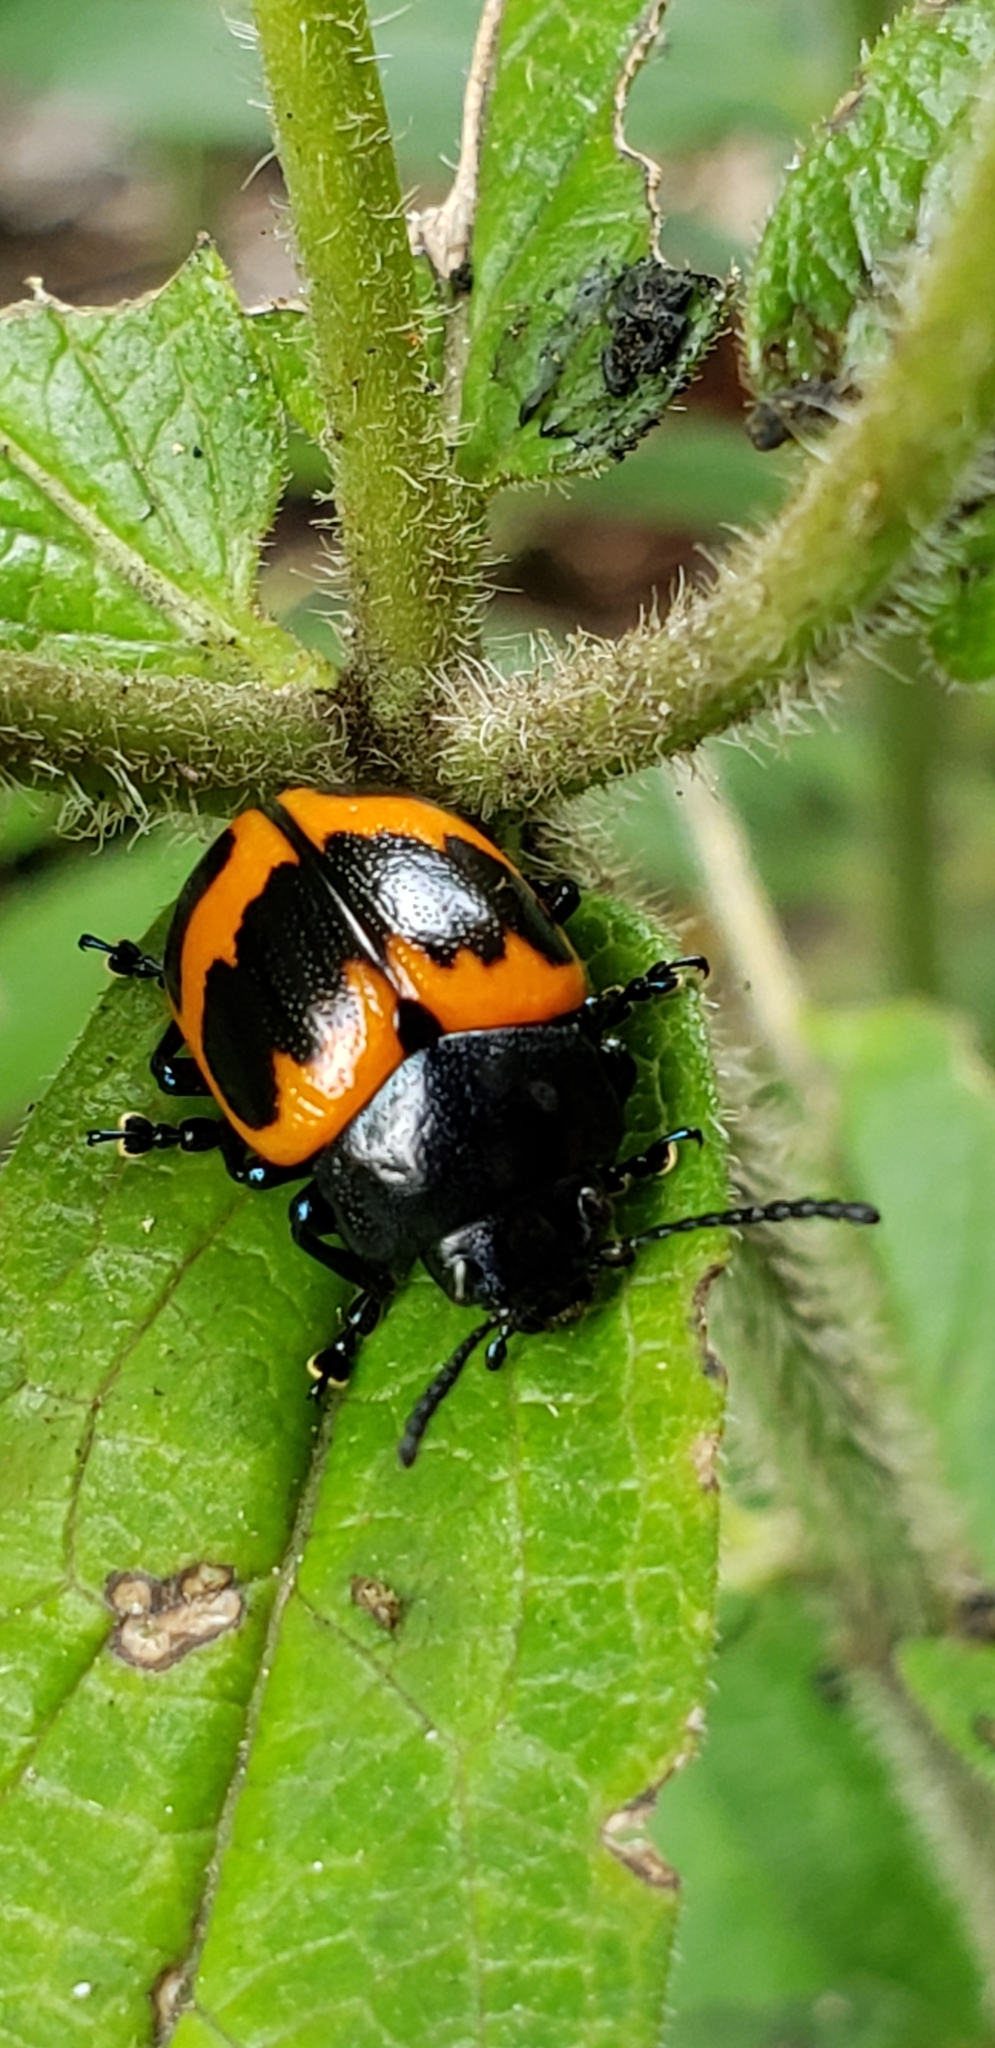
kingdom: Animalia
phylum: Arthropoda
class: Insecta
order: Coleoptera
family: Chrysomelidae
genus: Labidomera
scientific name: Labidomera clivicollis
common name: Swamp milkweed leaf beetle
